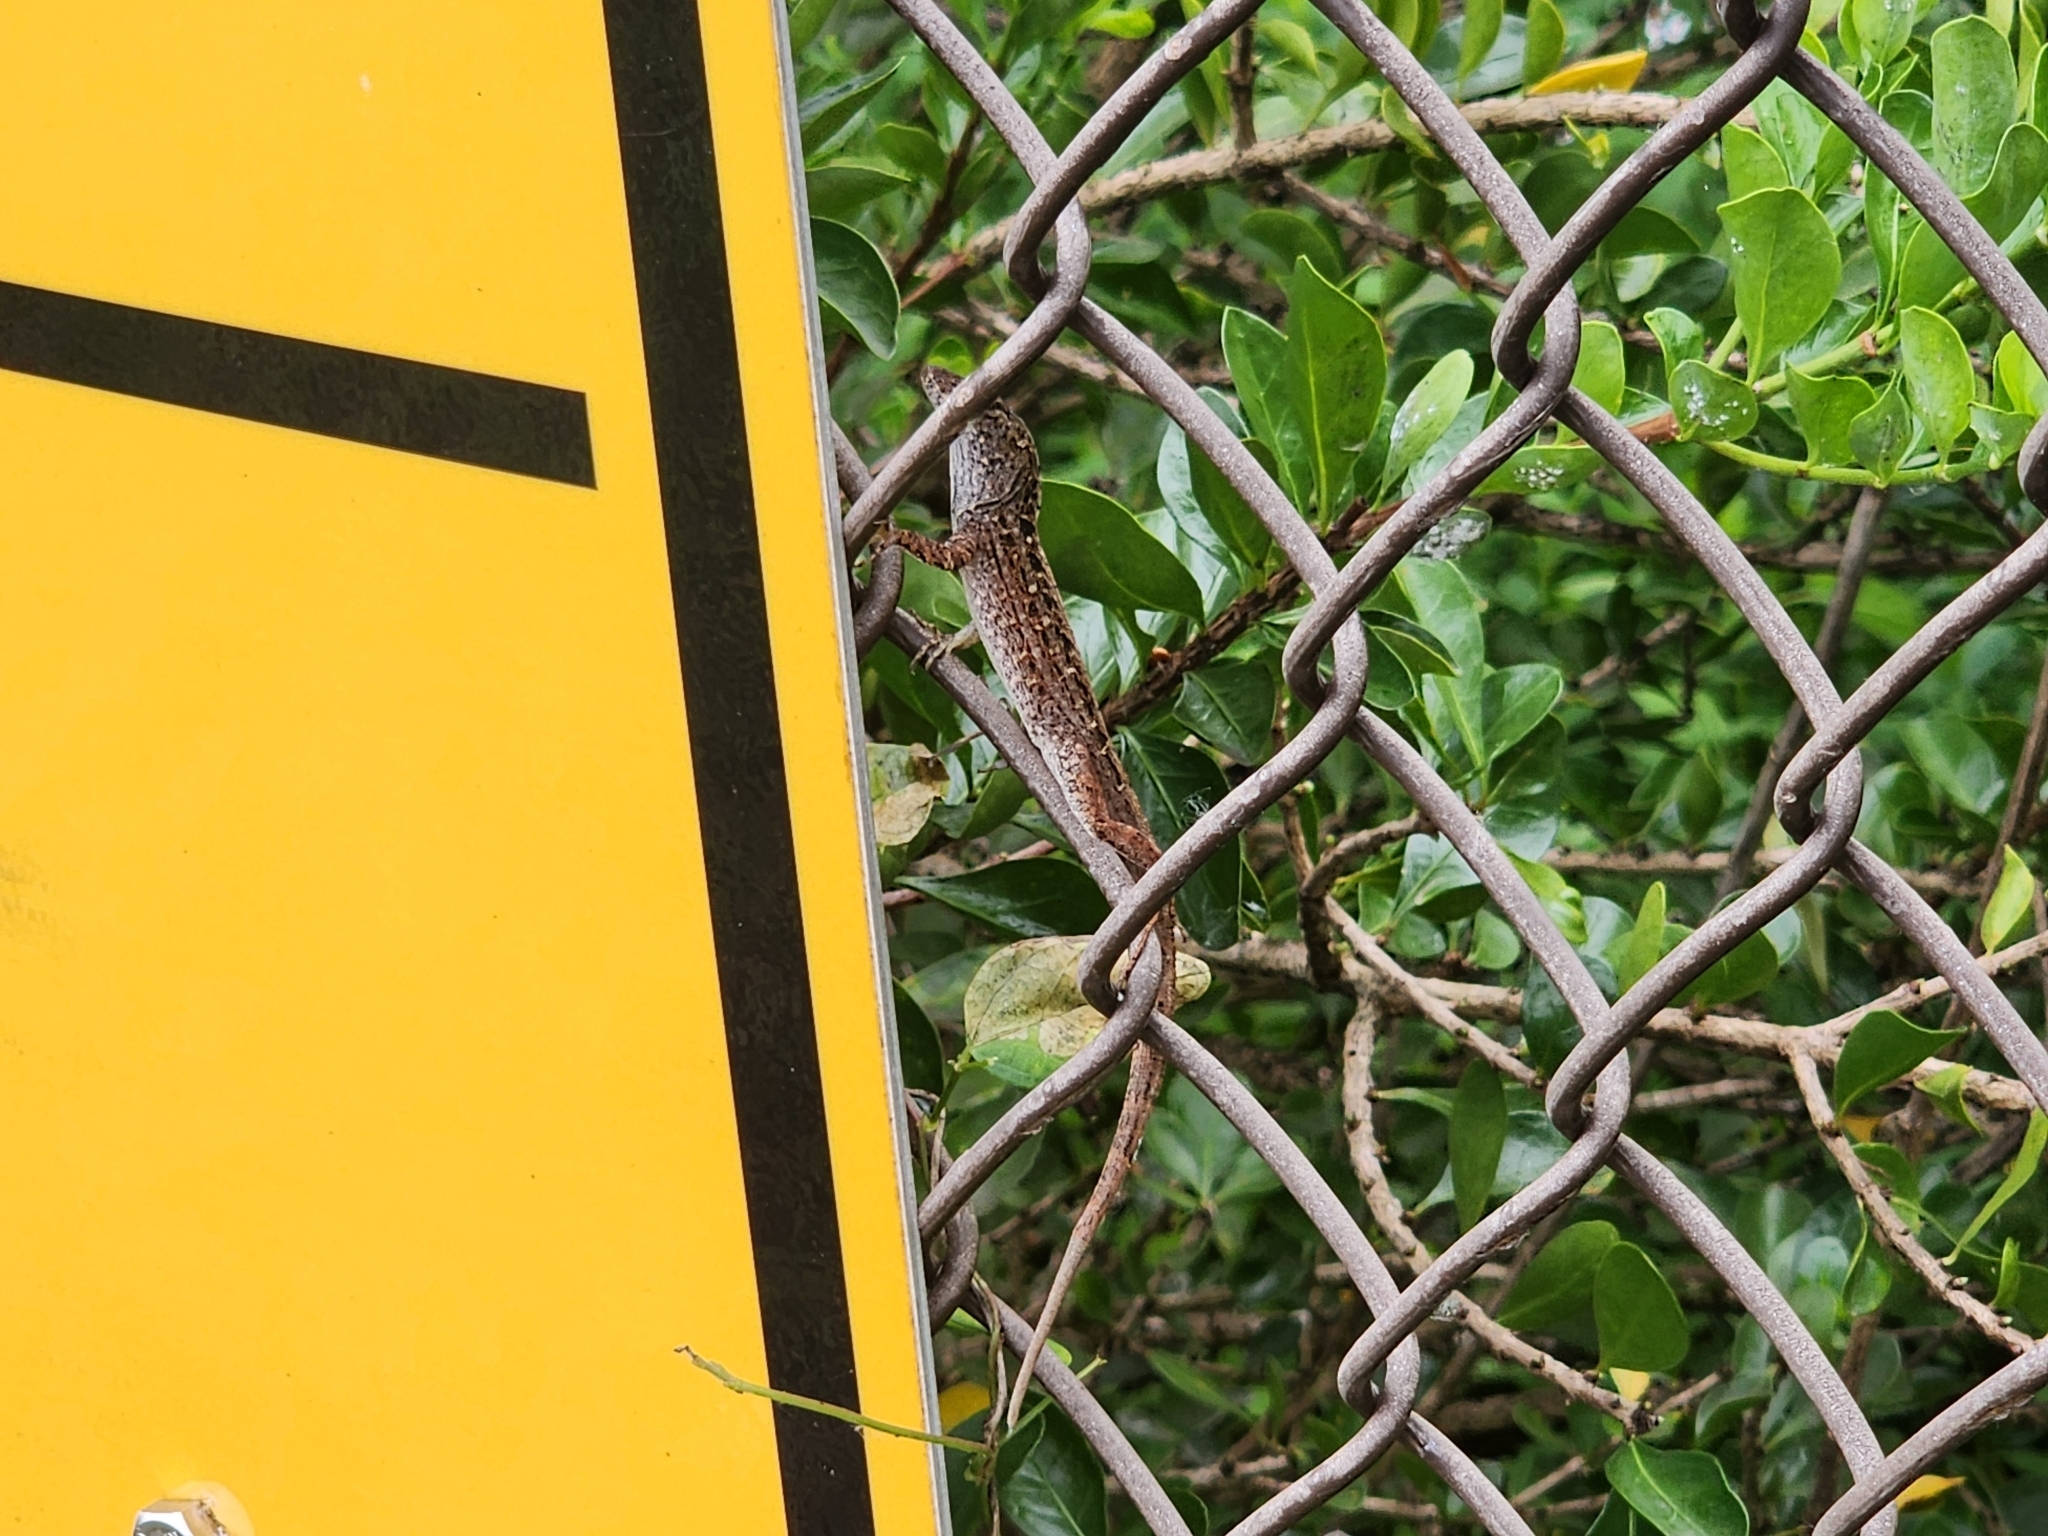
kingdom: Animalia
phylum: Chordata
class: Squamata
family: Dactyloidae
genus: Anolis
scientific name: Anolis sagrei
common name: Brown anole
